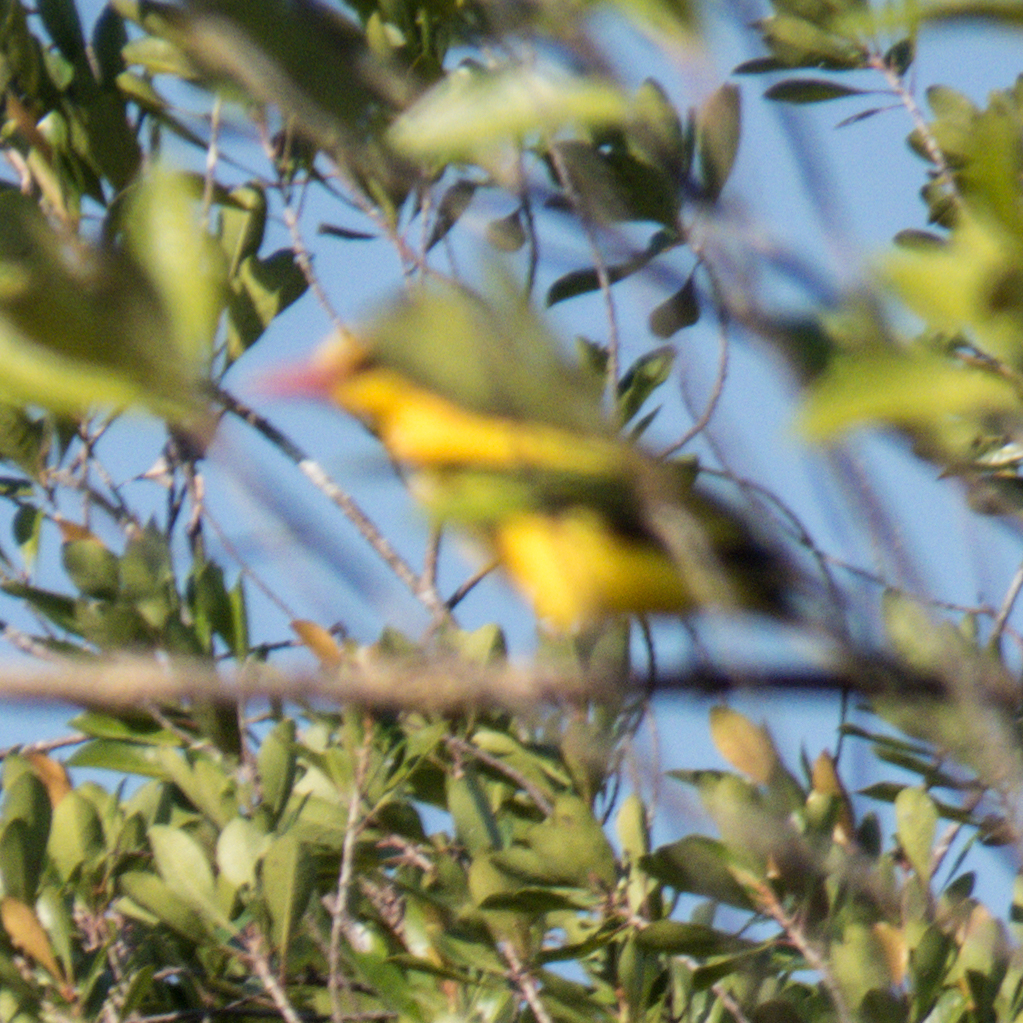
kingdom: Animalia
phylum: Chordata
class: Aves
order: Passeriformes
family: Oriolidae
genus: Oriolus
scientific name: Oriolus chinensis
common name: Black-naped oriole
